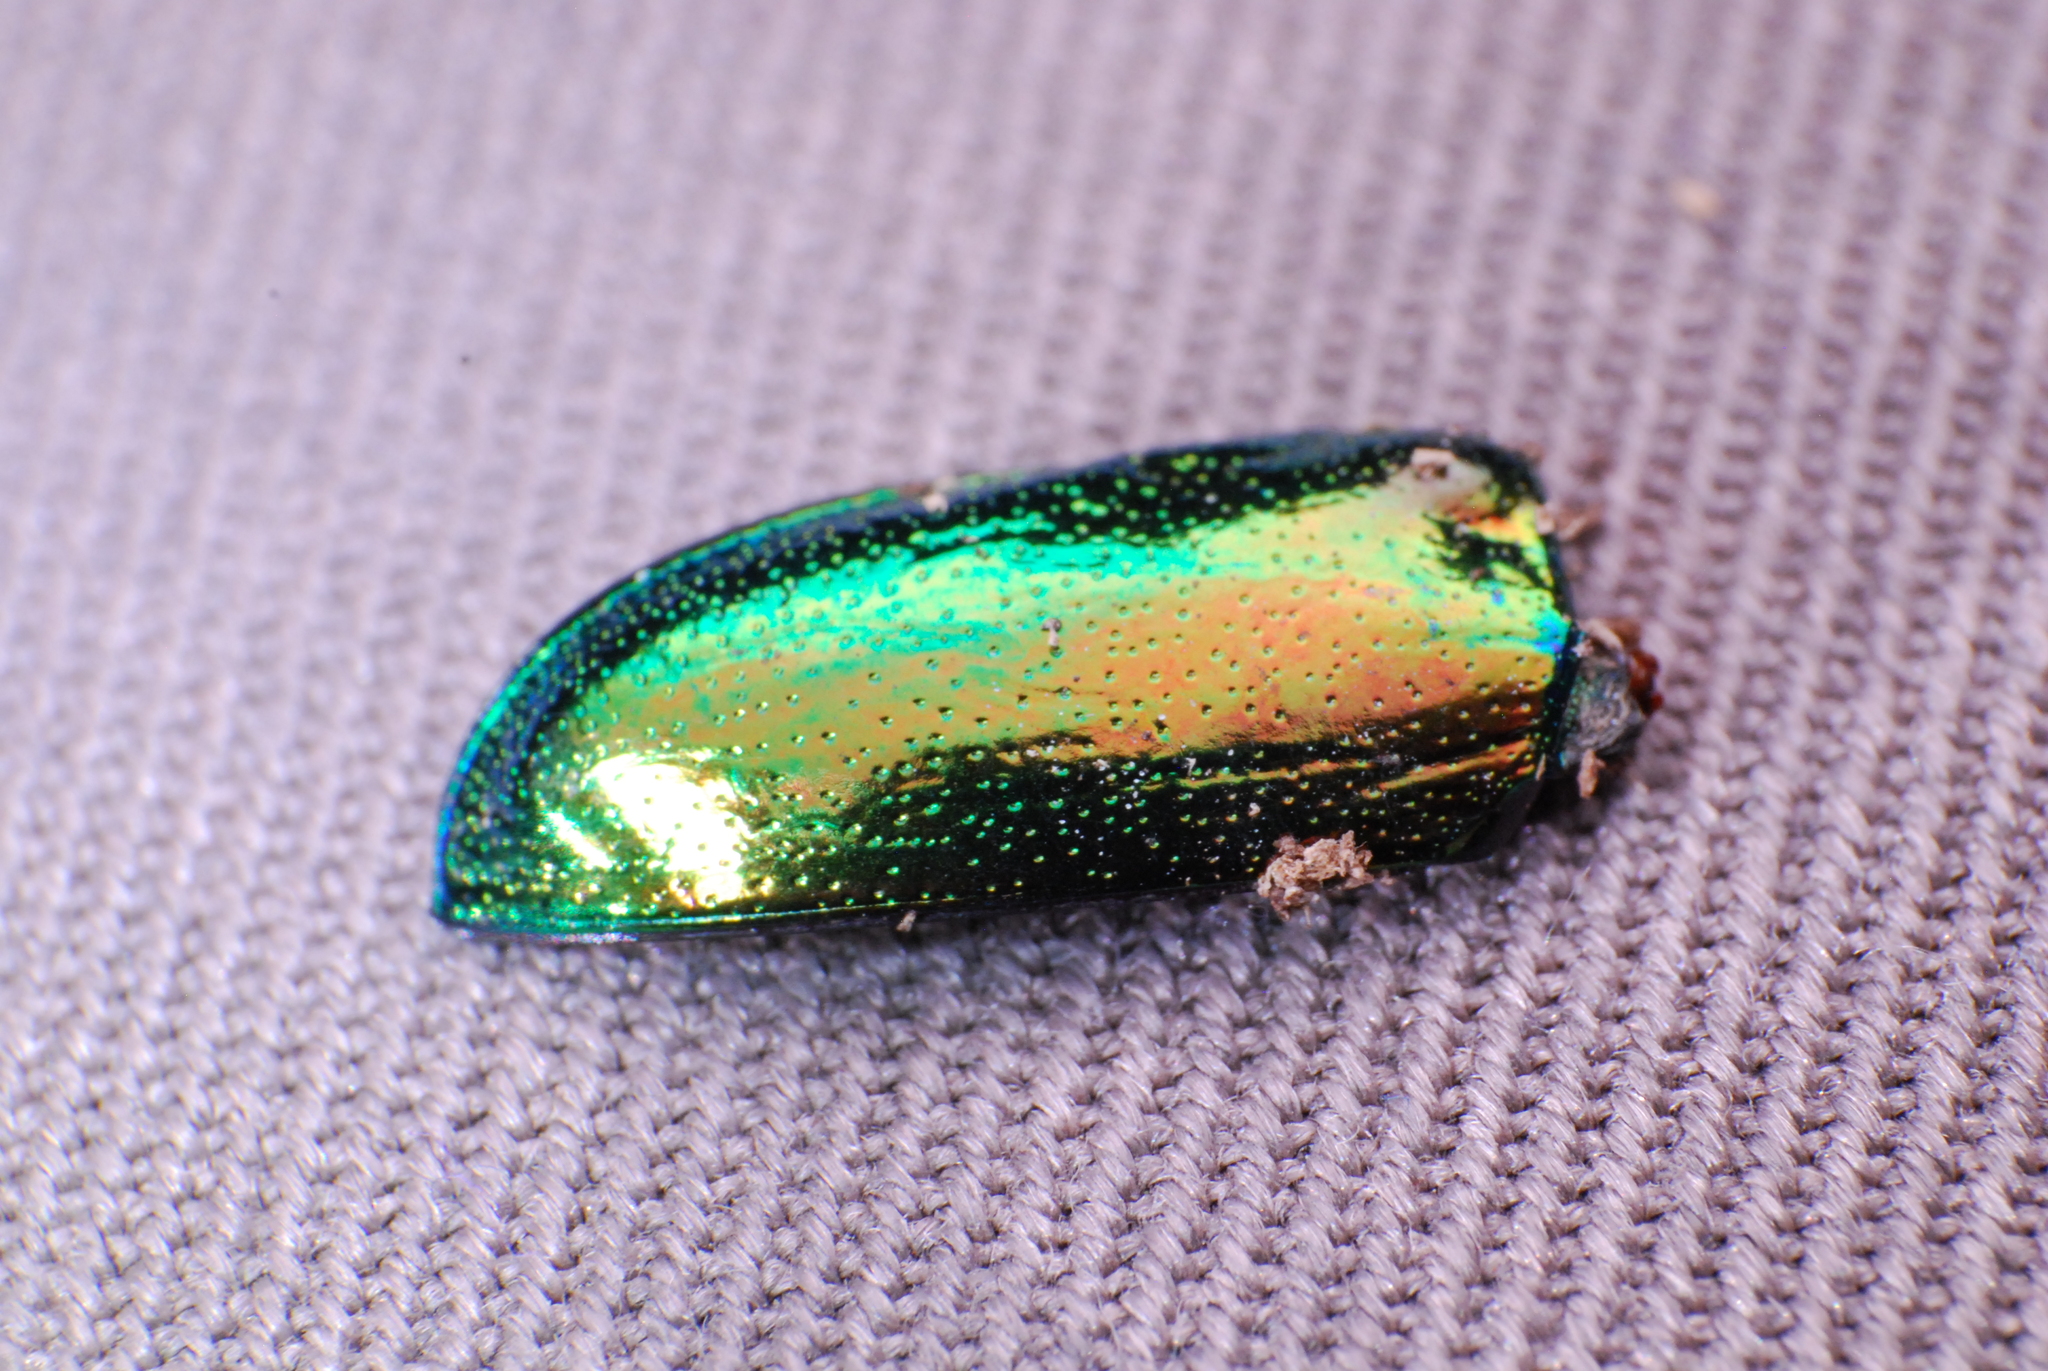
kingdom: Animalia
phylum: Arthropoda
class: Insecta
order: Coleoptera
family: Lucanidae
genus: Lamprima
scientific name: Lamprima aurata
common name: Golden stag beetle
